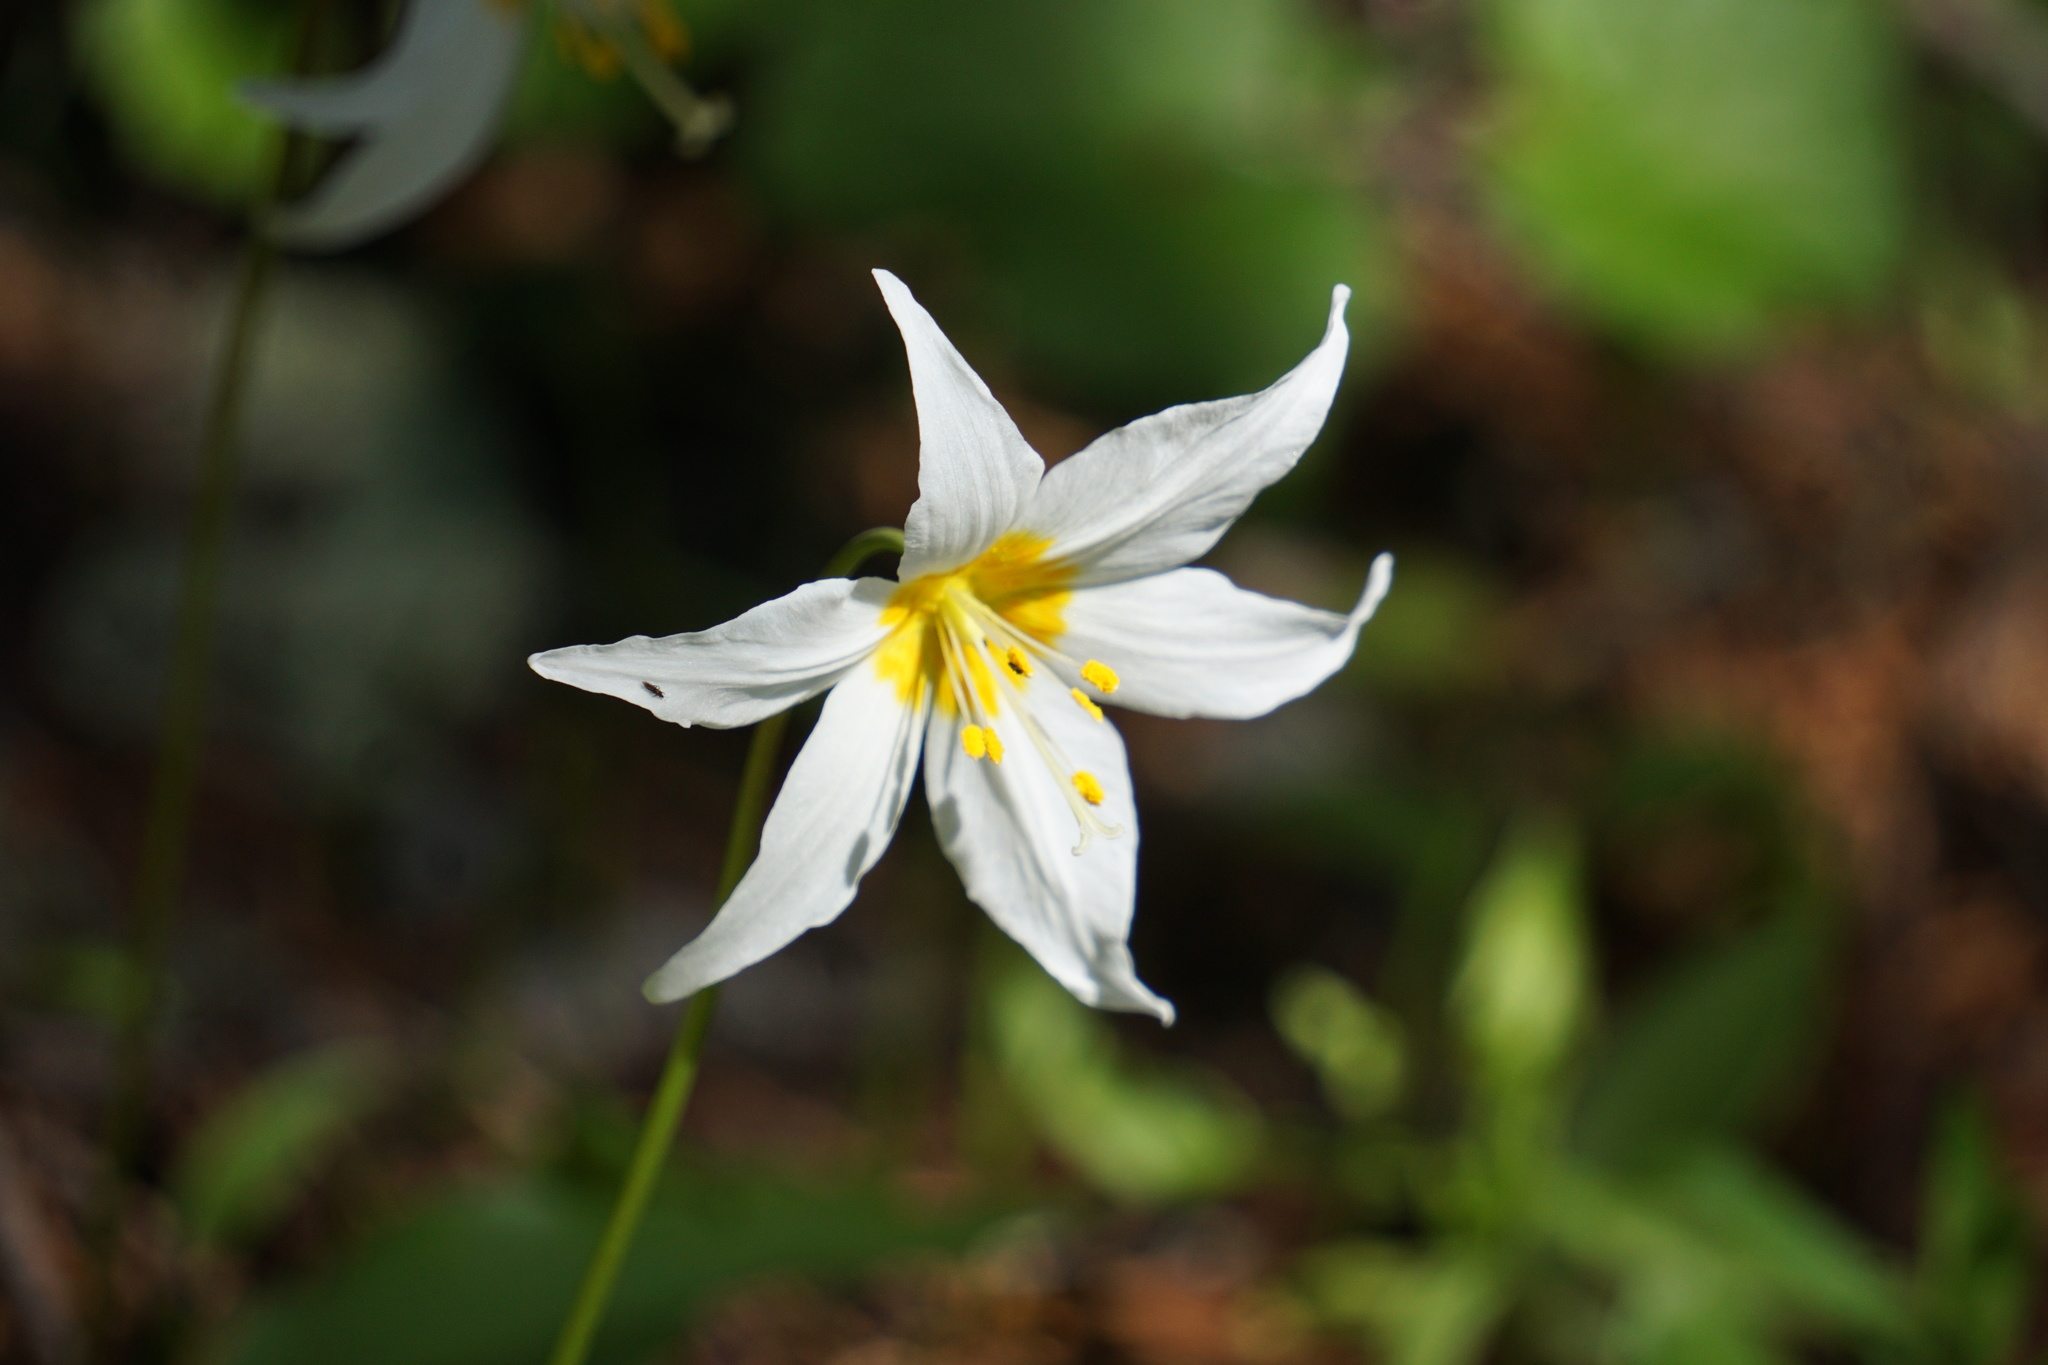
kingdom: Plantae
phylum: Tracheophyta
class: Liliopsida
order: Liliales
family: Liliaceae
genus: Erythronium
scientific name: Erythronium montanum
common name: Avalanche lily
